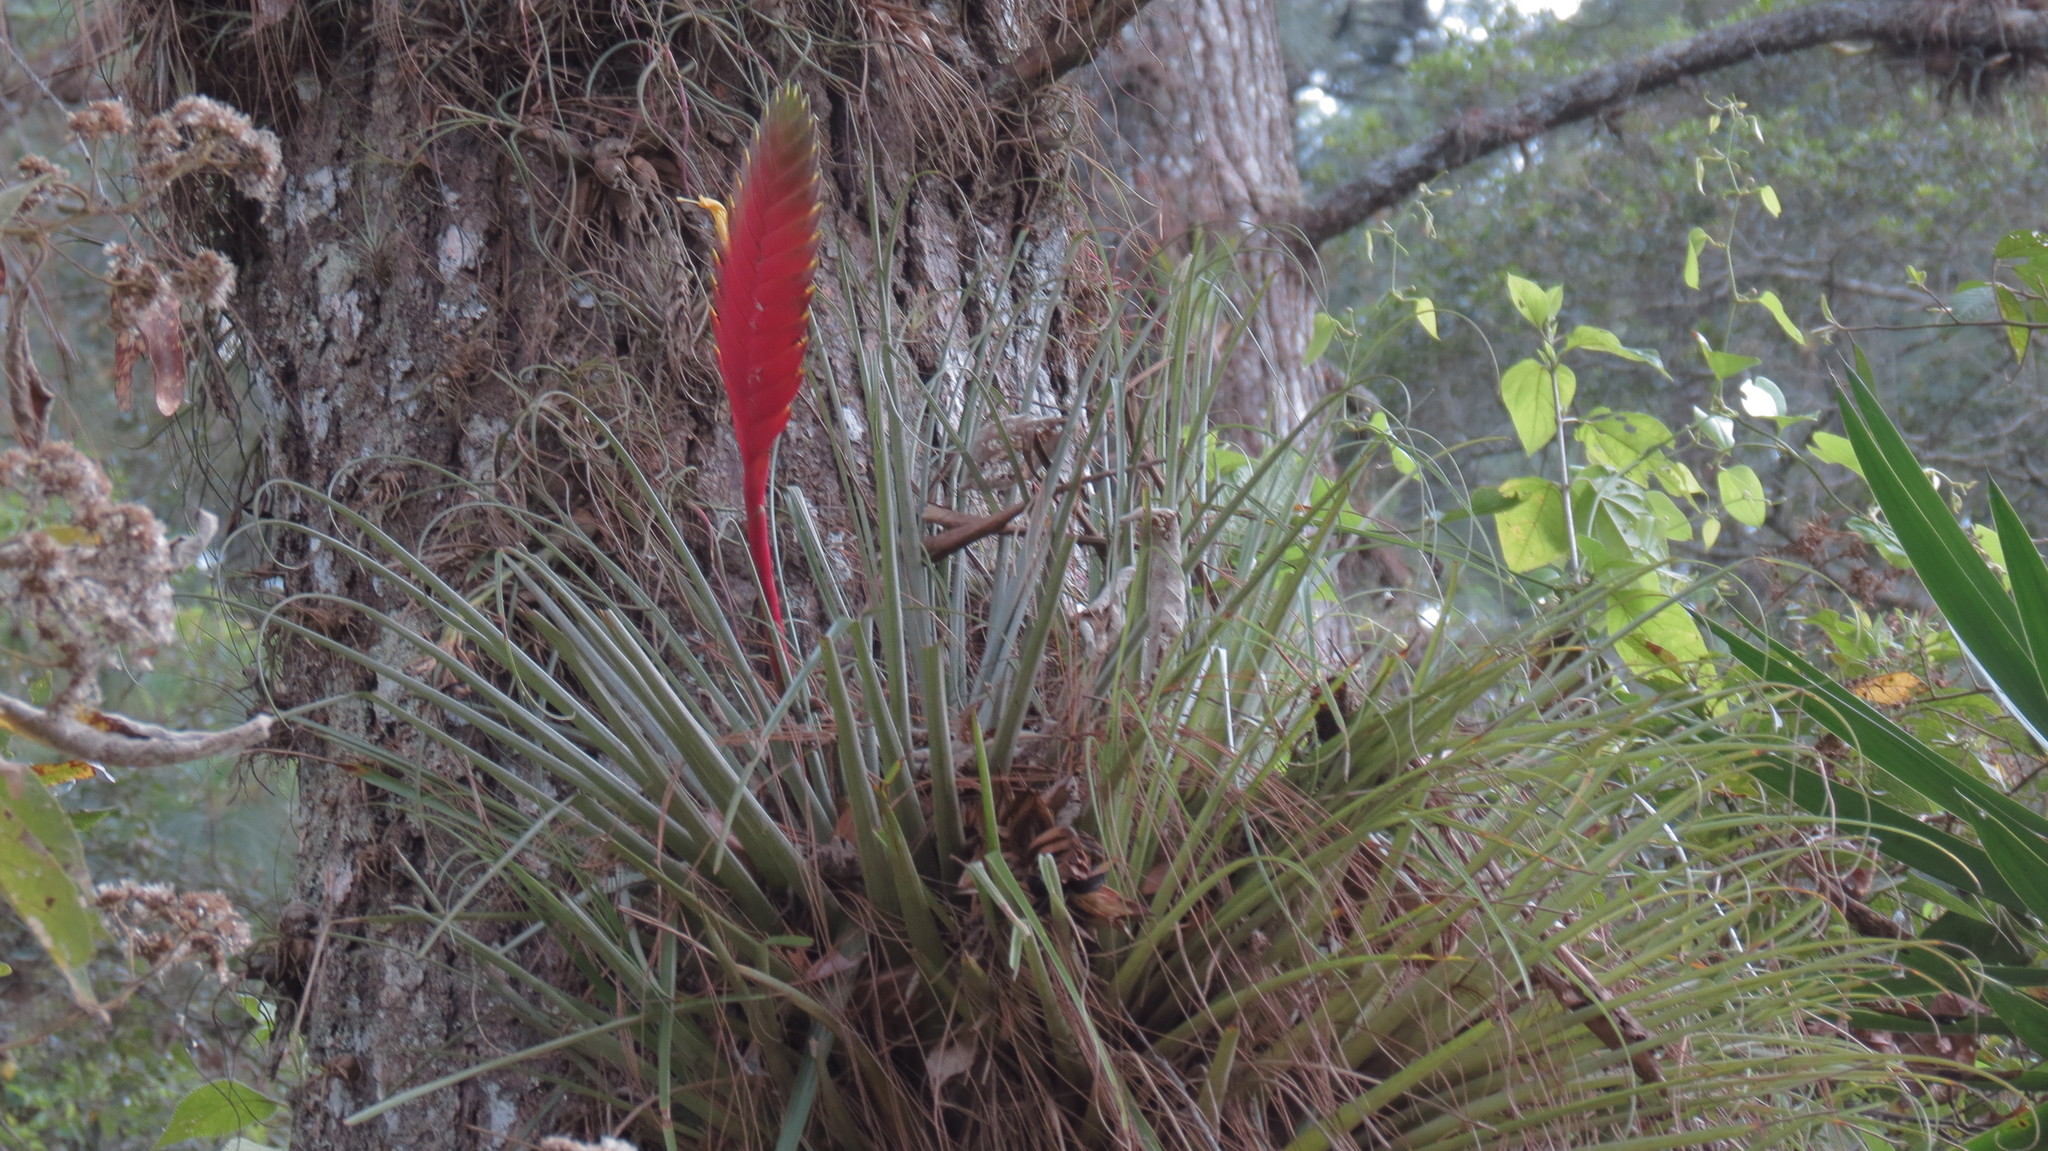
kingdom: Plantae
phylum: Tracheophyta
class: Liliopsida
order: Poales
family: Bromeliaceae
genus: Tillandsia
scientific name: Tillandsia lampropoda
